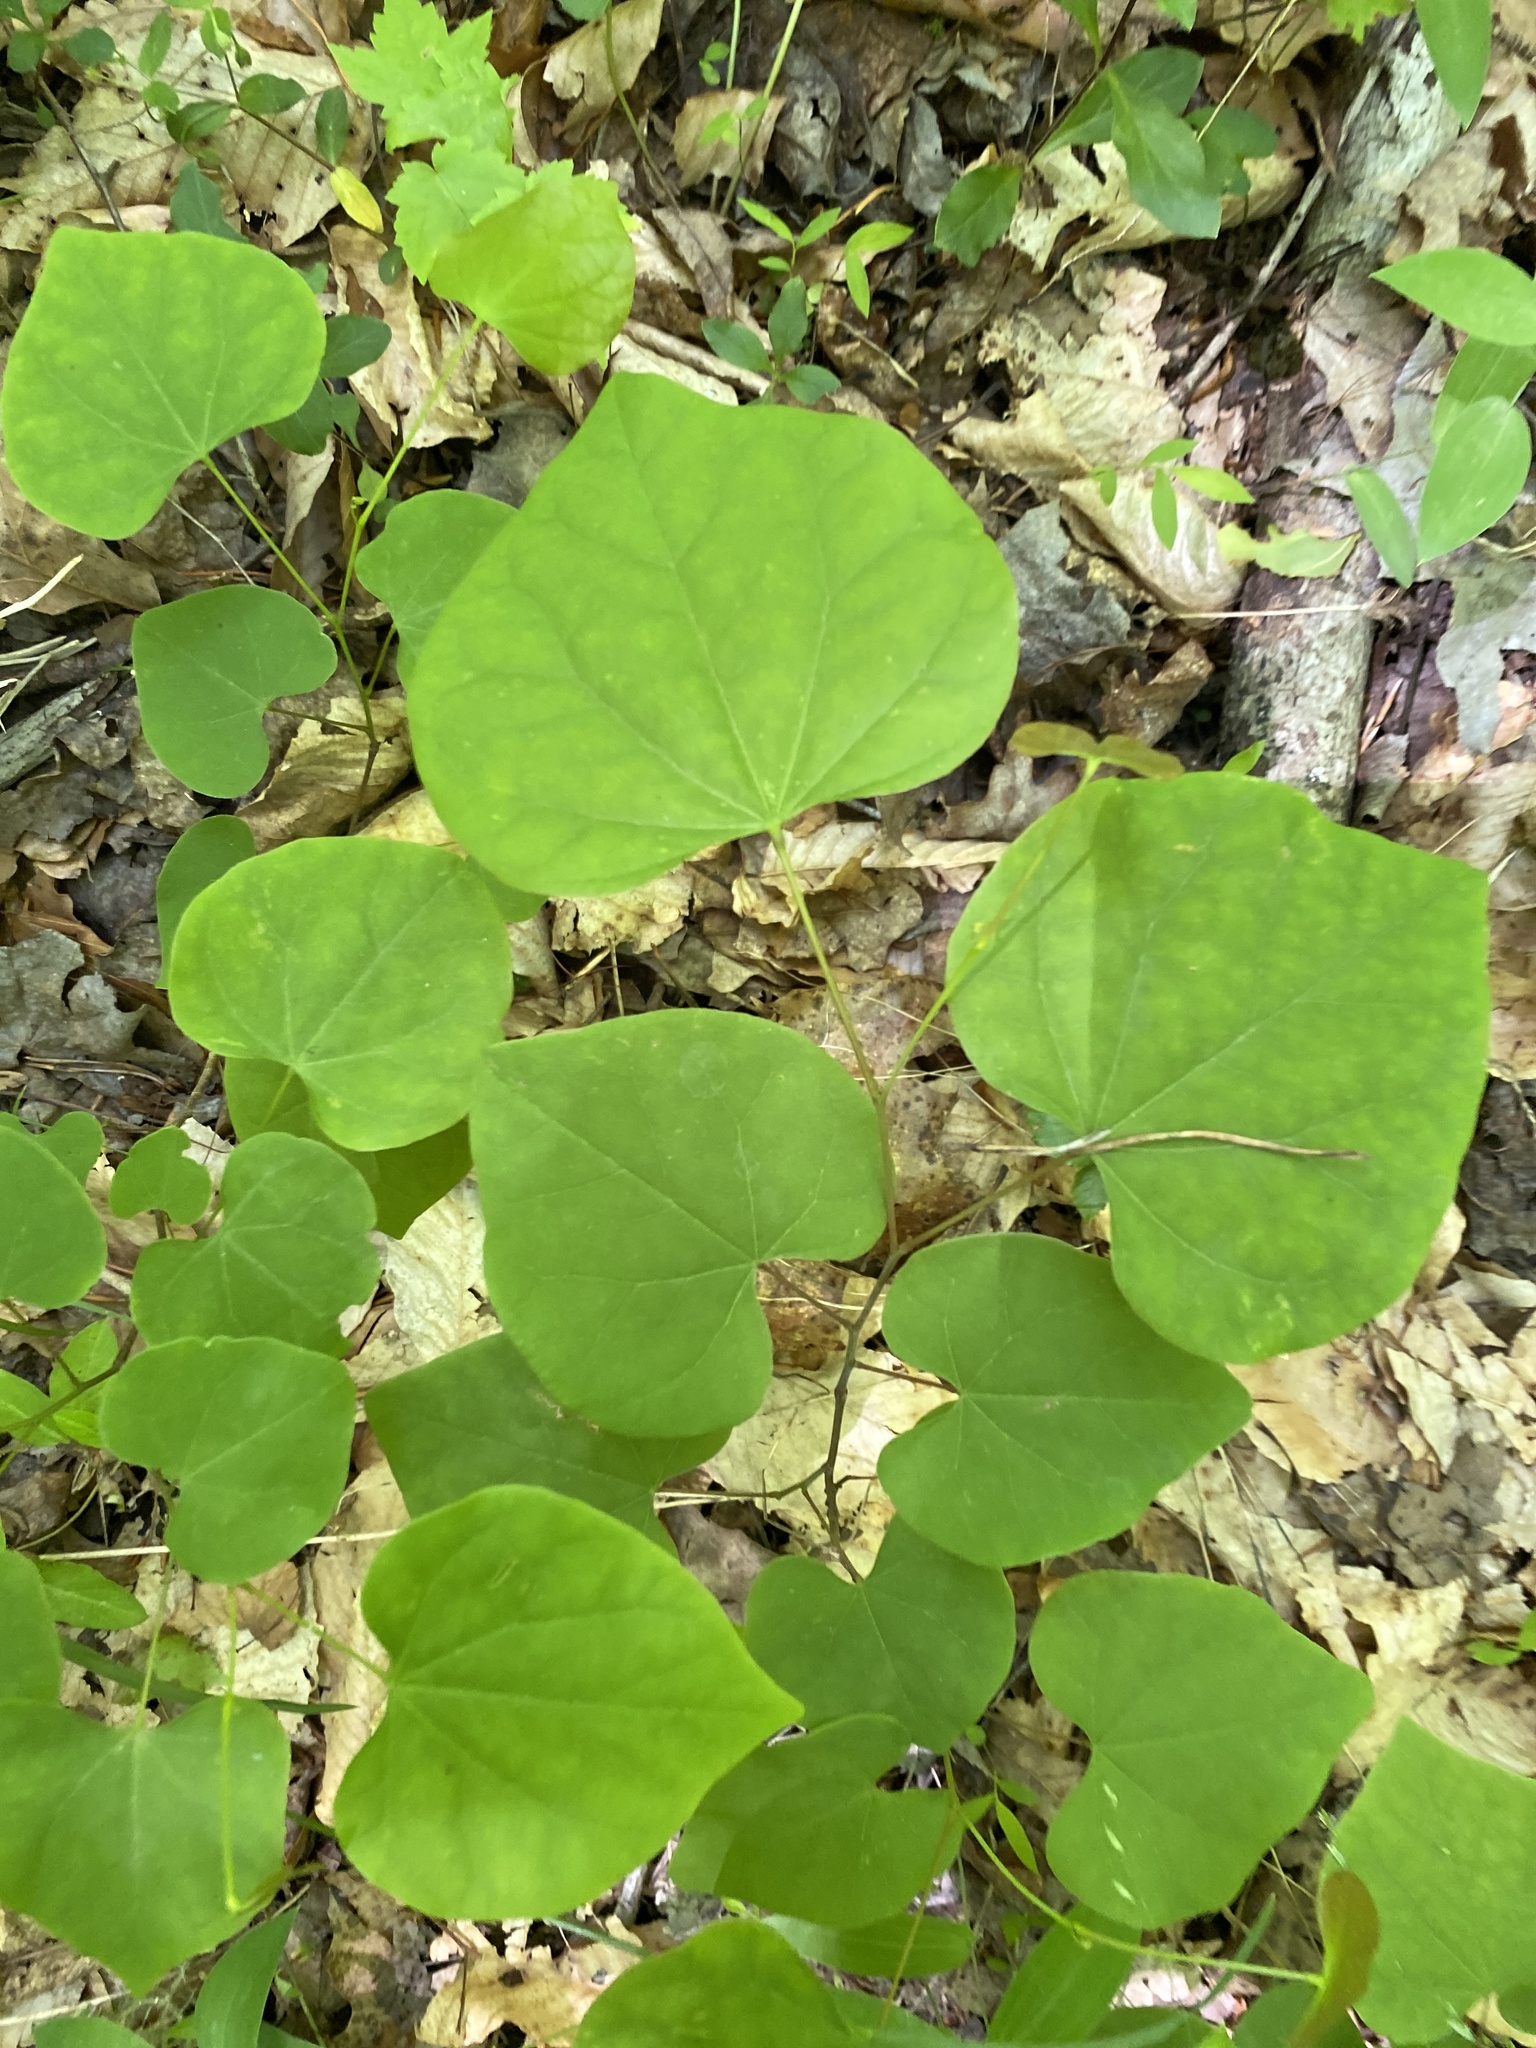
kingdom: Plantae
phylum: Tracheophyta
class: Magnoliopsida
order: Fabales
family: Fabaceae
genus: Cercis
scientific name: Cercis canadensis
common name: Eastern redbud
